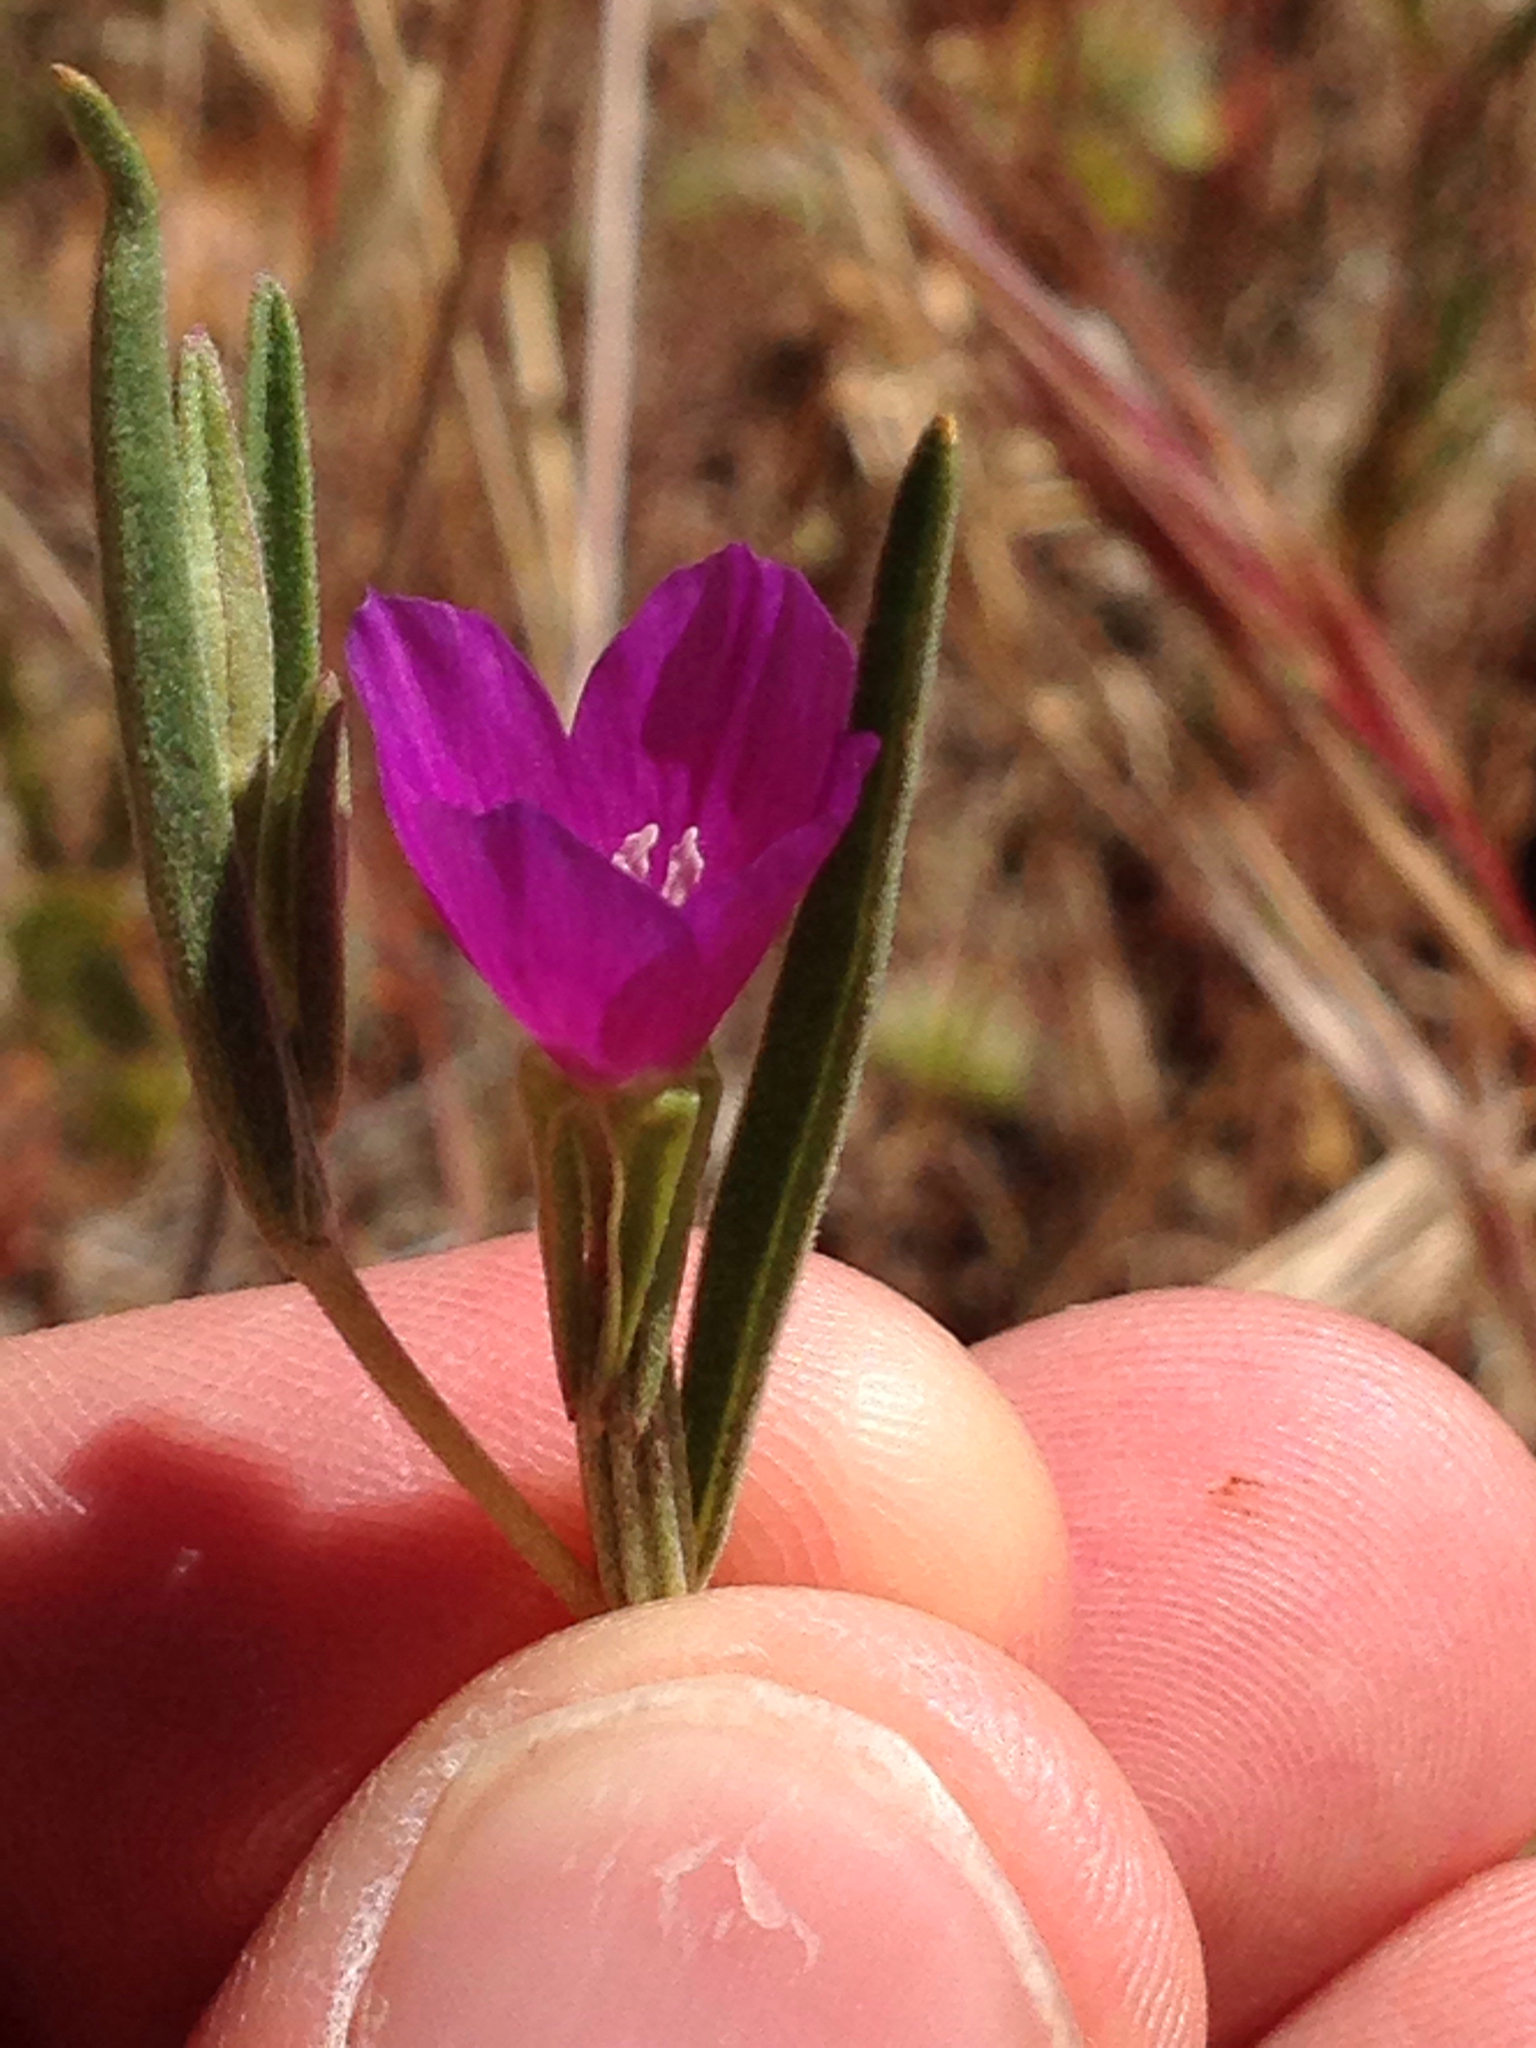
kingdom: Plantae
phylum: Tracheophyta
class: Magnoliopsida
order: Myrtales
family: Onagraceae
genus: Clarkia
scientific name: Clarkia purpurea
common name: Purple clarkia
